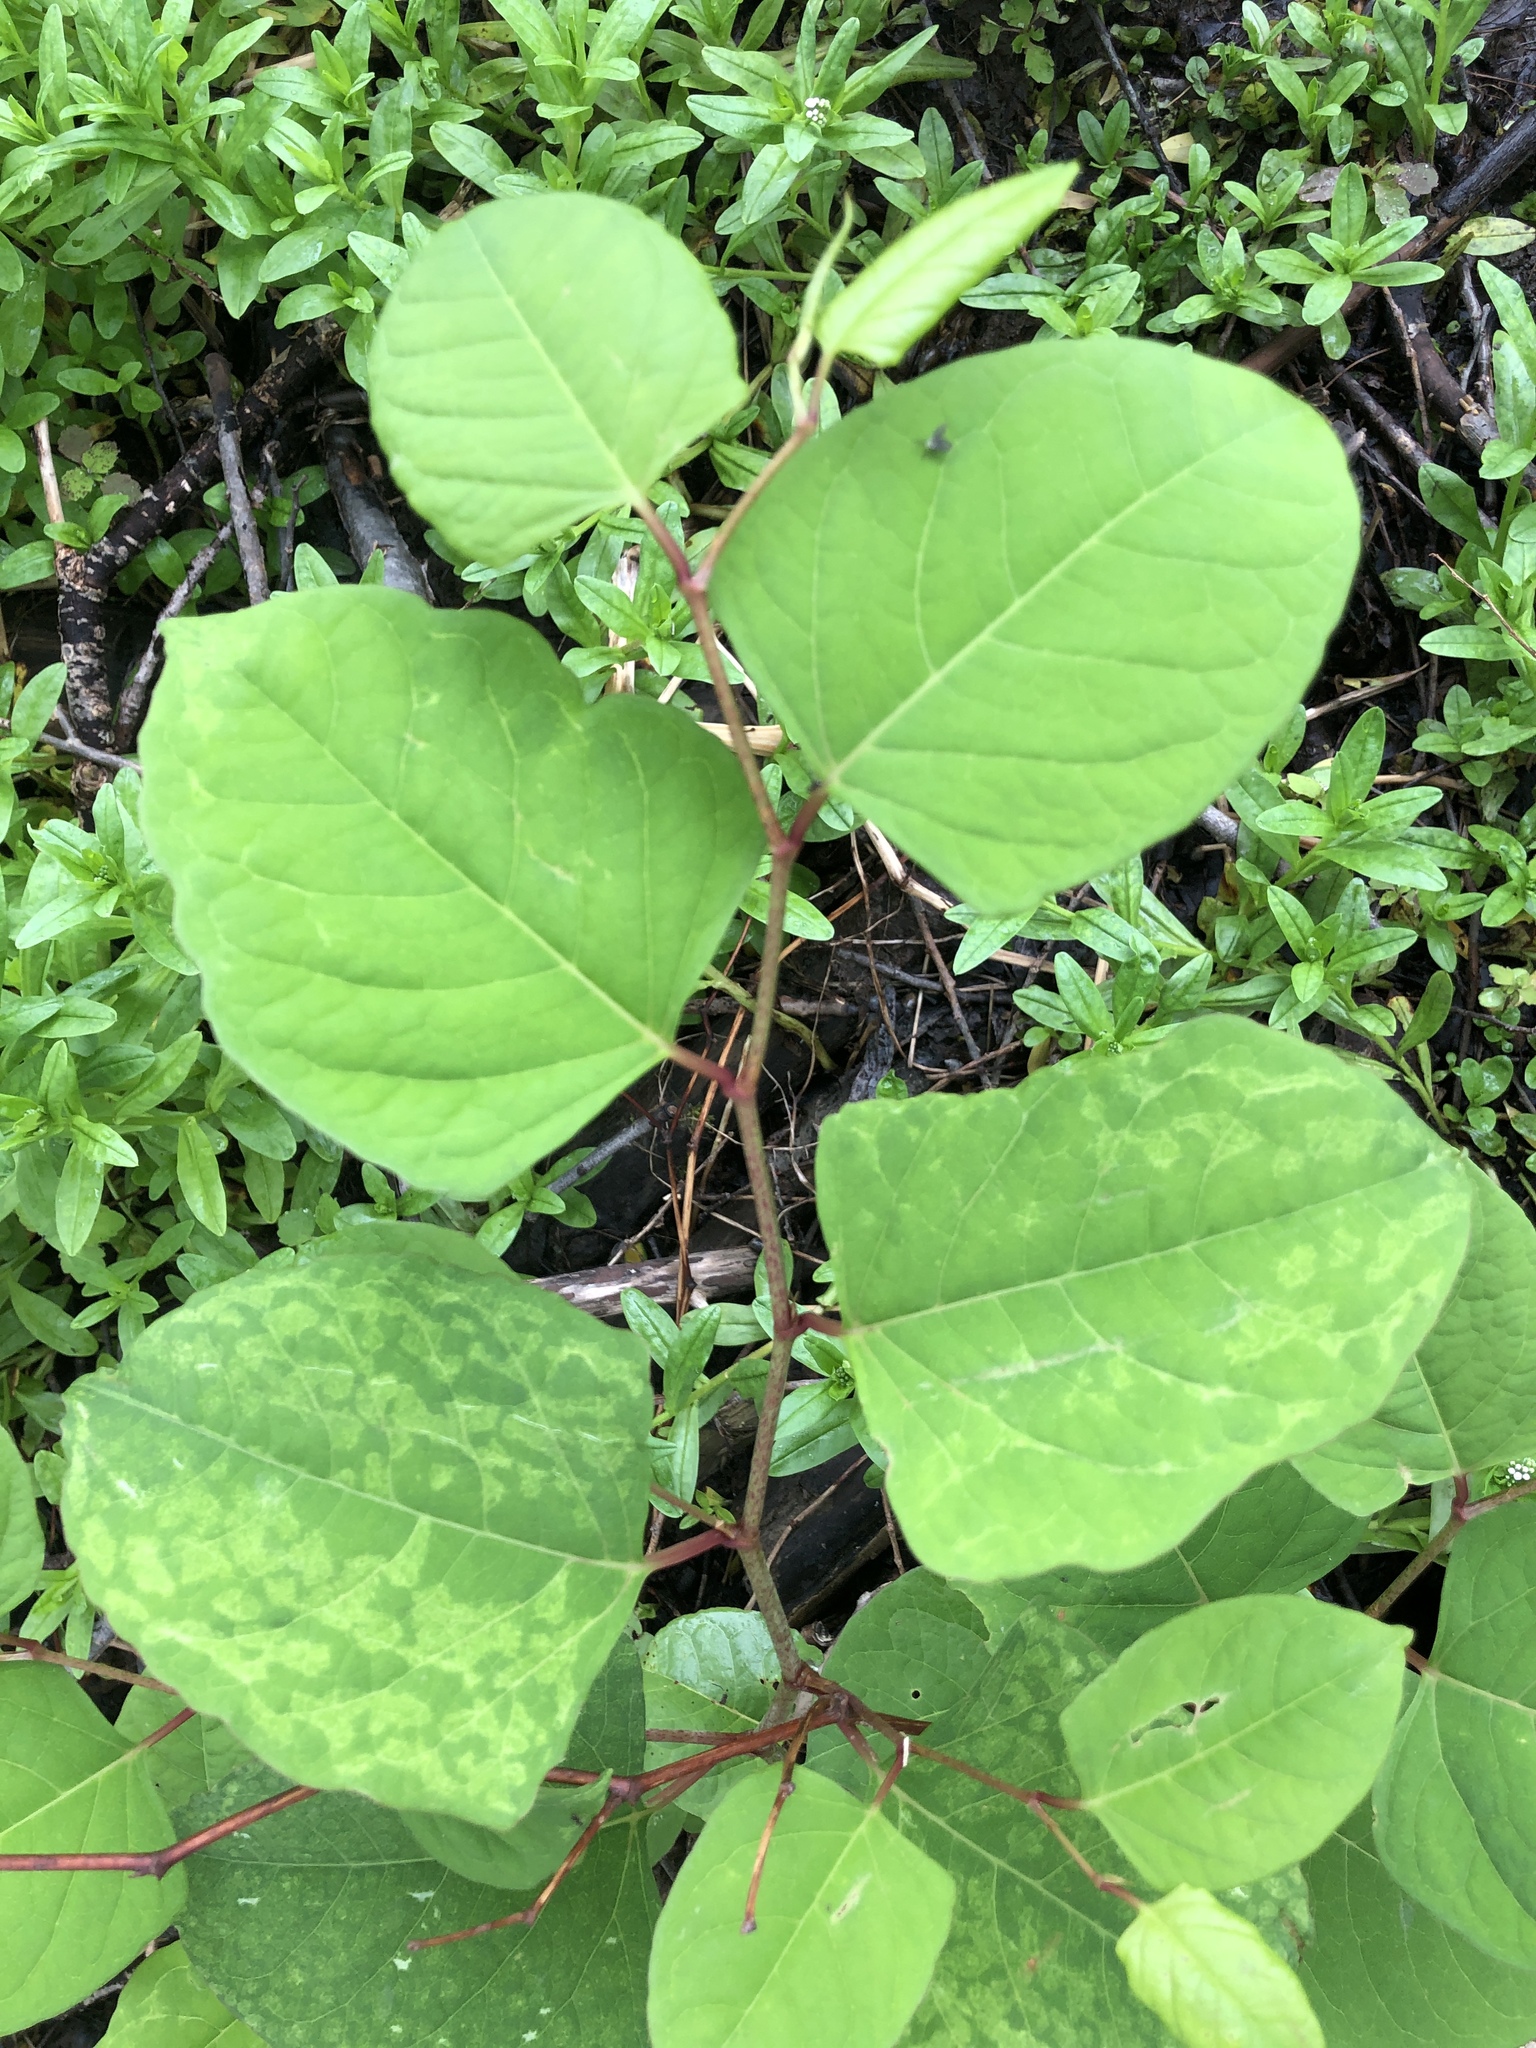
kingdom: Plantae
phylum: Tracheophyta
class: Magnoliopsida
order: Caryophyllales
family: Polygonaceae
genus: Reynoutria
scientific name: Reynoutria japonica
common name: Japanese knotweed
